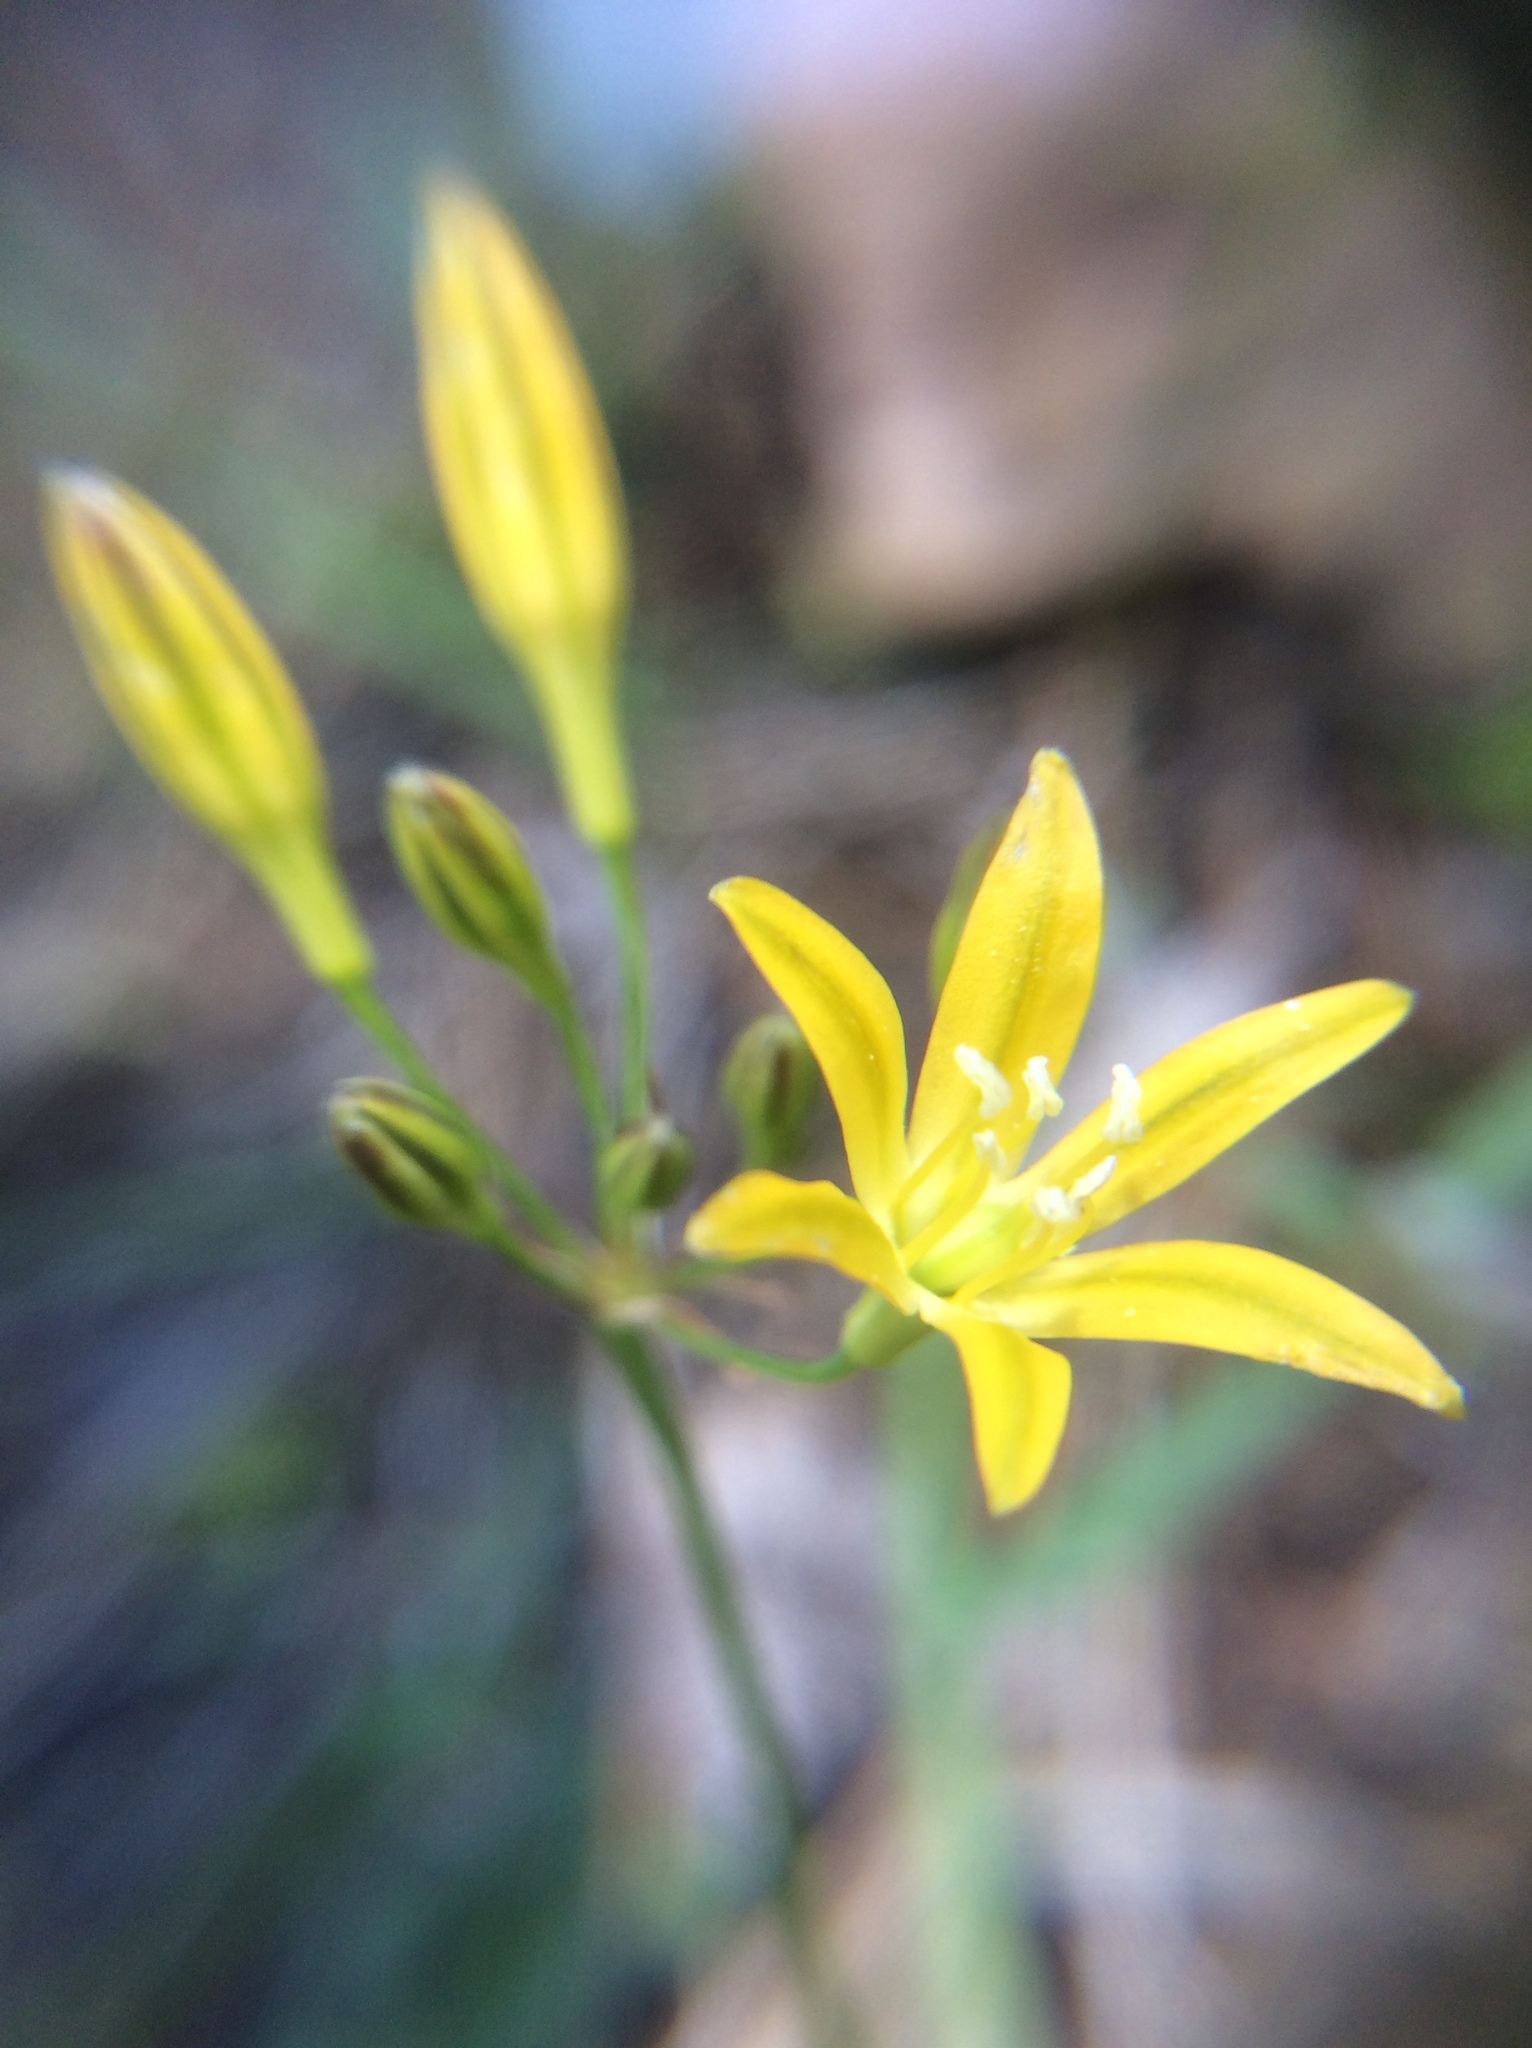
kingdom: Plantae
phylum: Tracheophyta
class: Liliopsida
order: Asparagales
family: Asparagaceae
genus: Triteleia
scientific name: Triteleia montana
